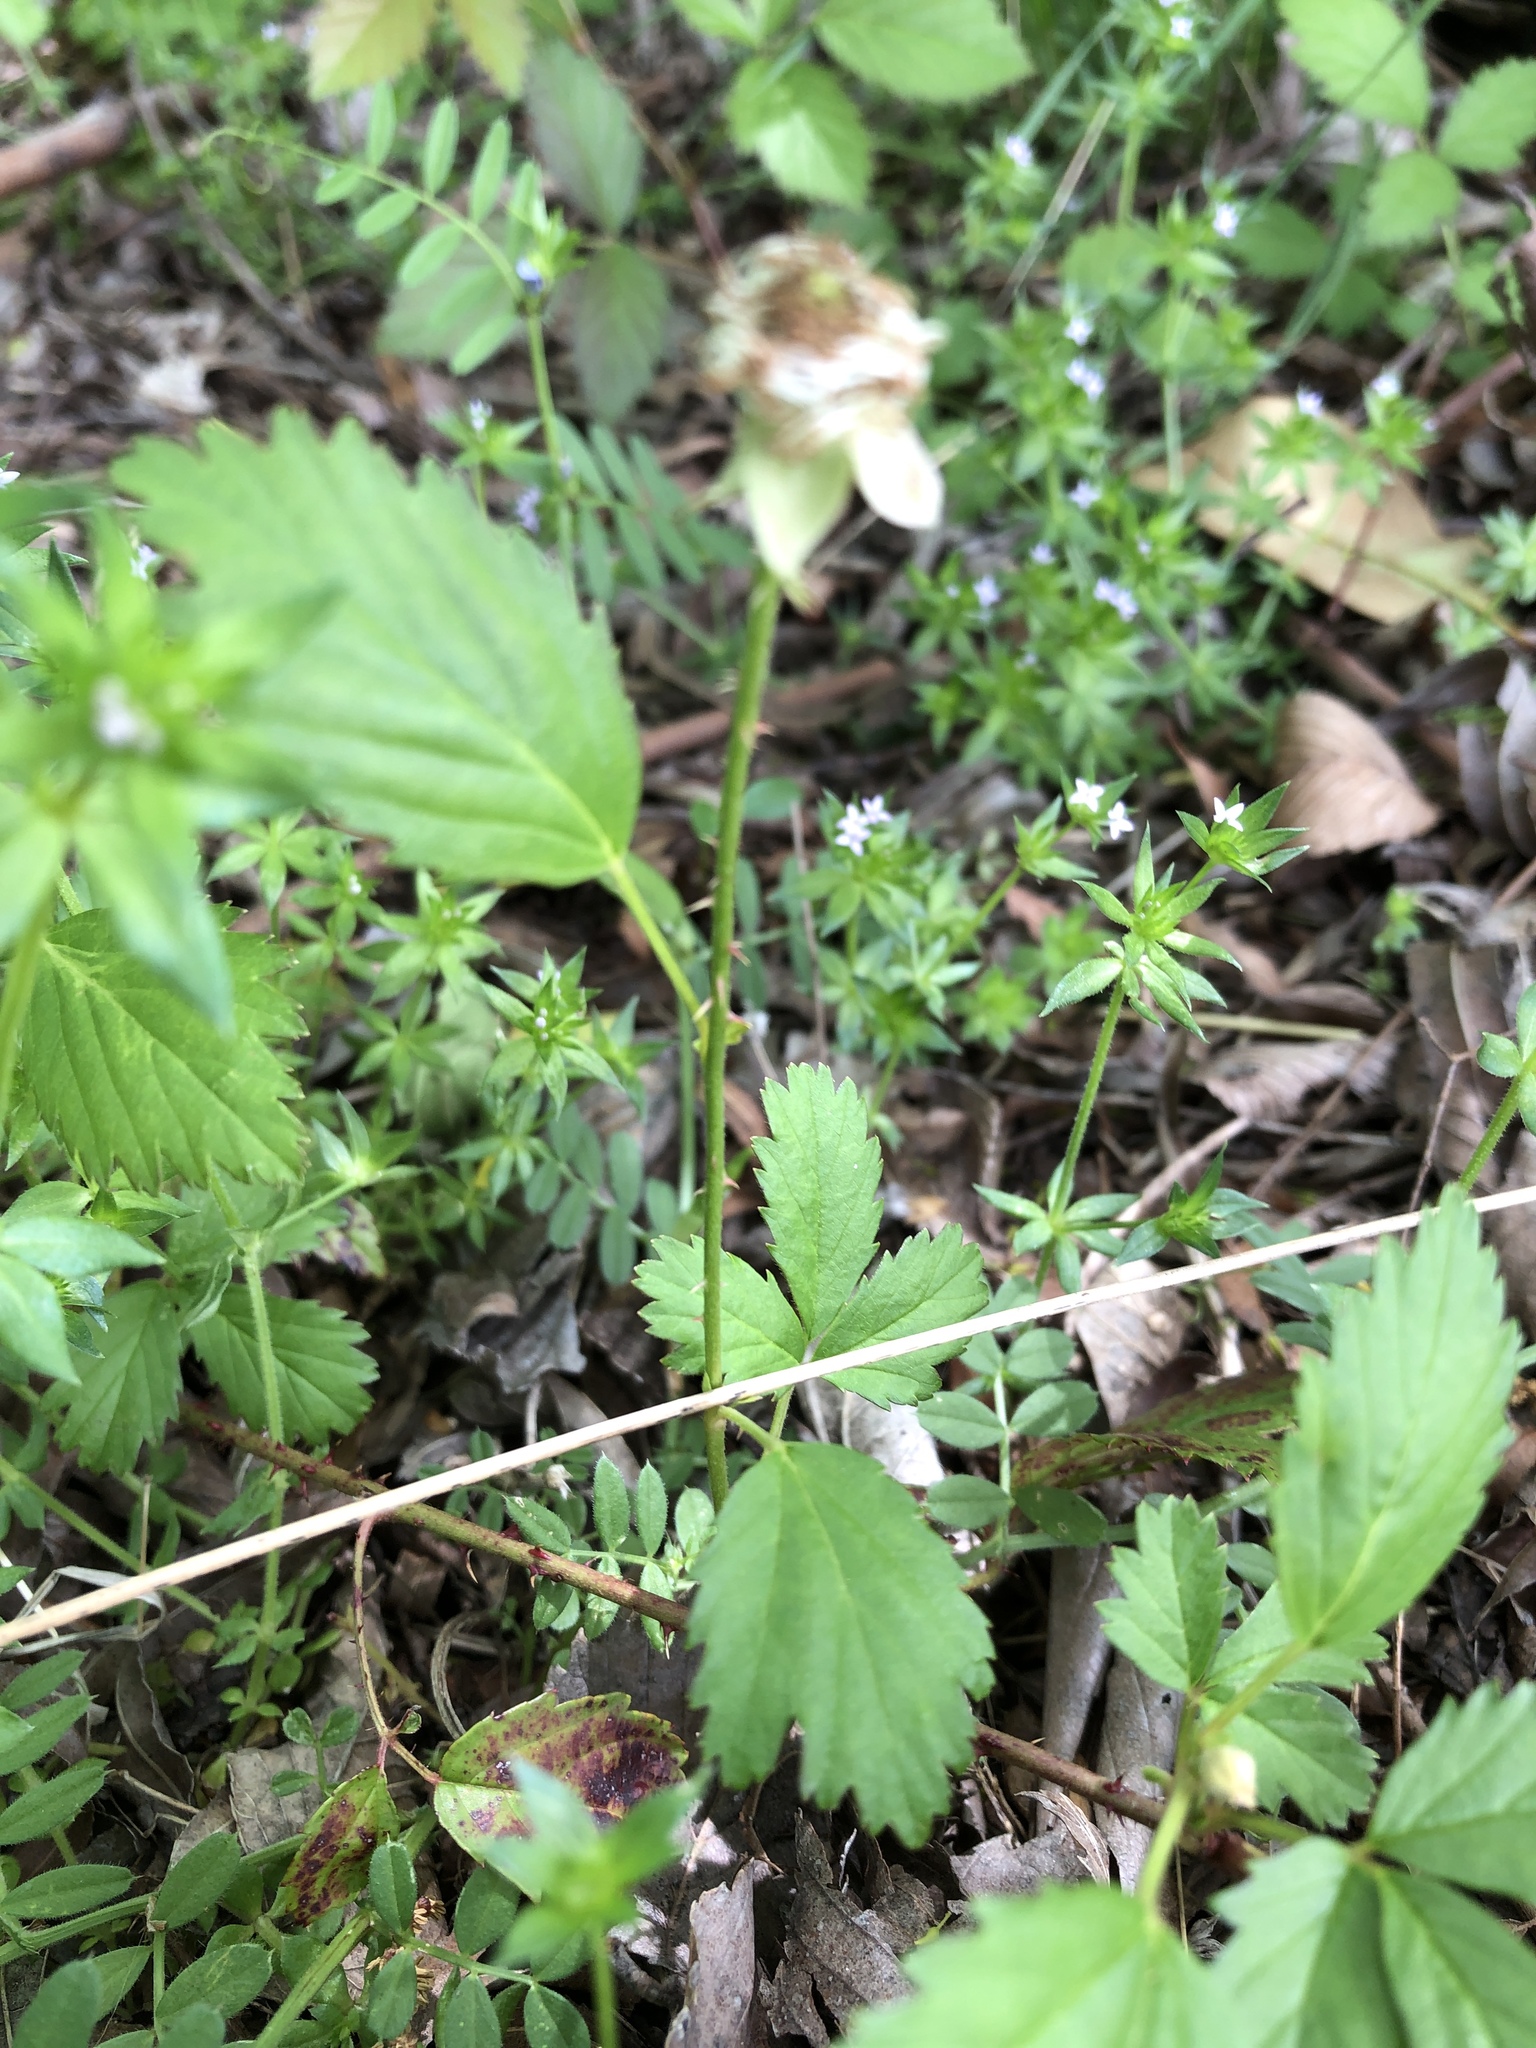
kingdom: Plantae
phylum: Tracheophyta
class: Magnoliopsida
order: Rosales
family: Rosaceae
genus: Rubus
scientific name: Rubus trivialis
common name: Southern dewberry
